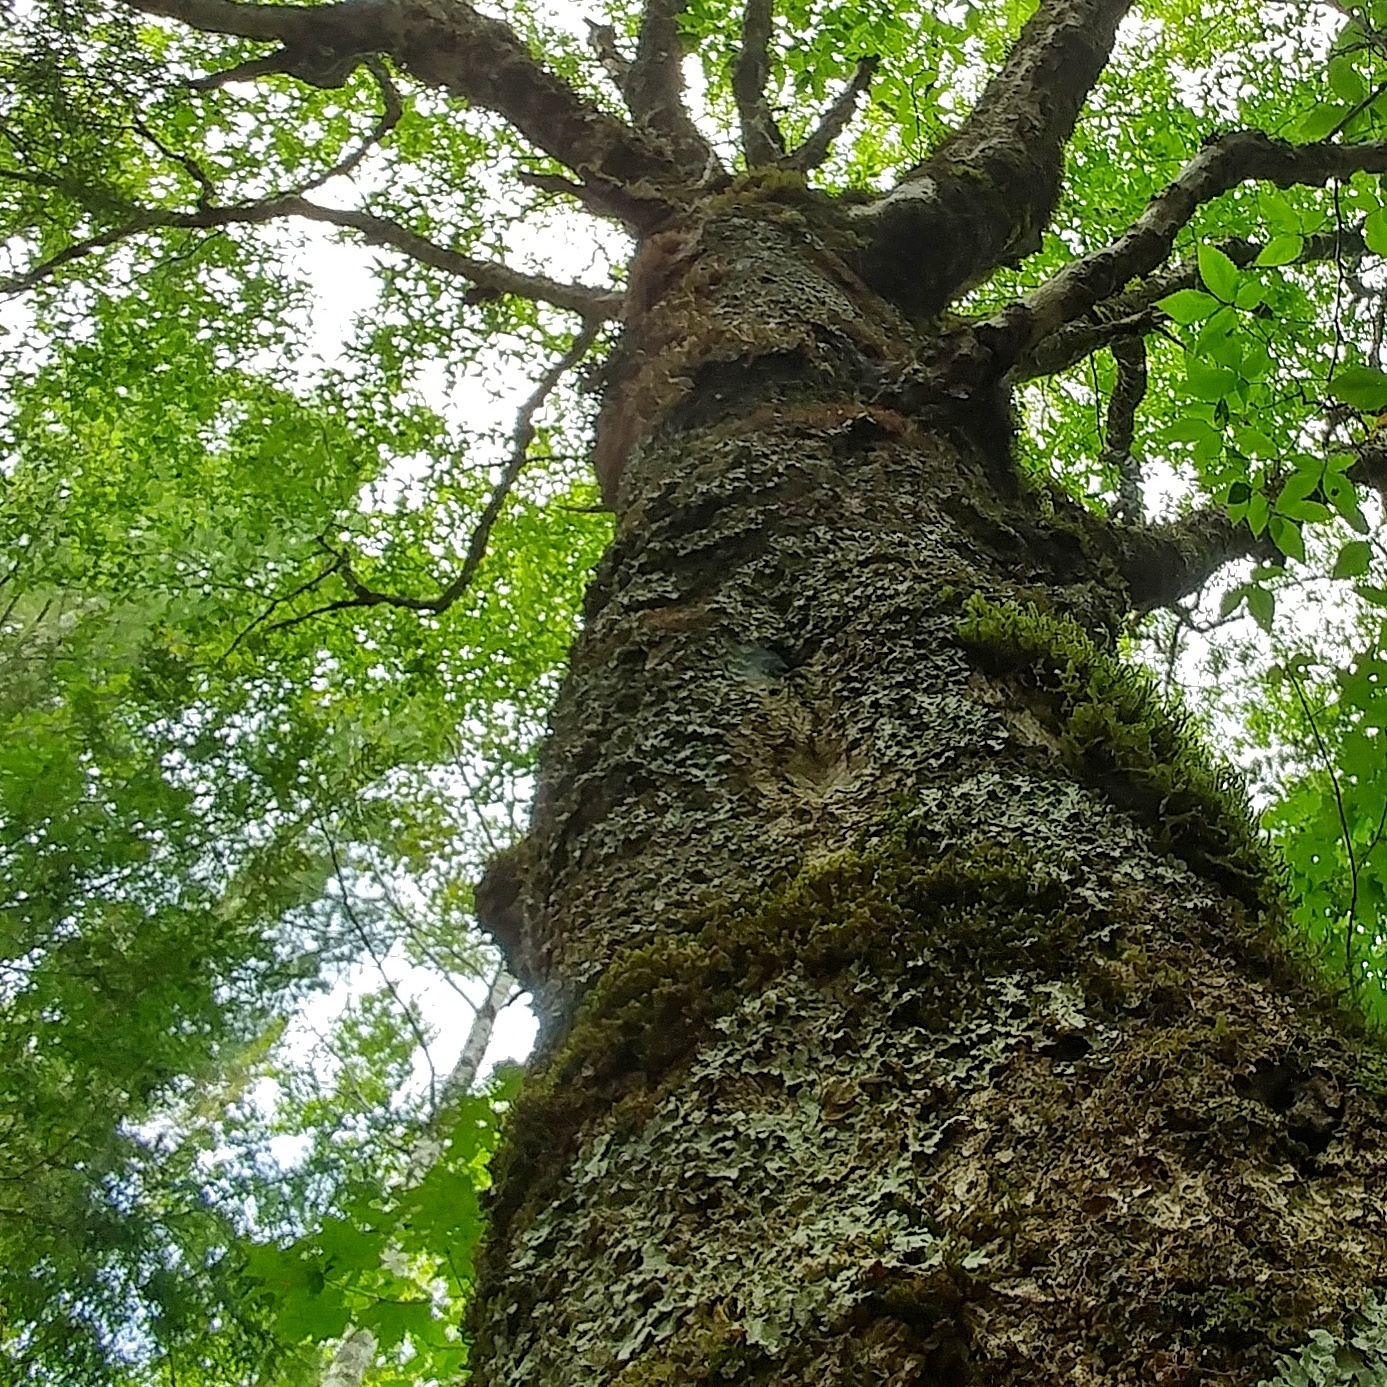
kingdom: Plantae
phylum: Tracheophyta
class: Magnoliopsida
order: Fagales
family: Fagaceae
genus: Fagus
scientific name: Fagus grandifolia
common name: American beech
